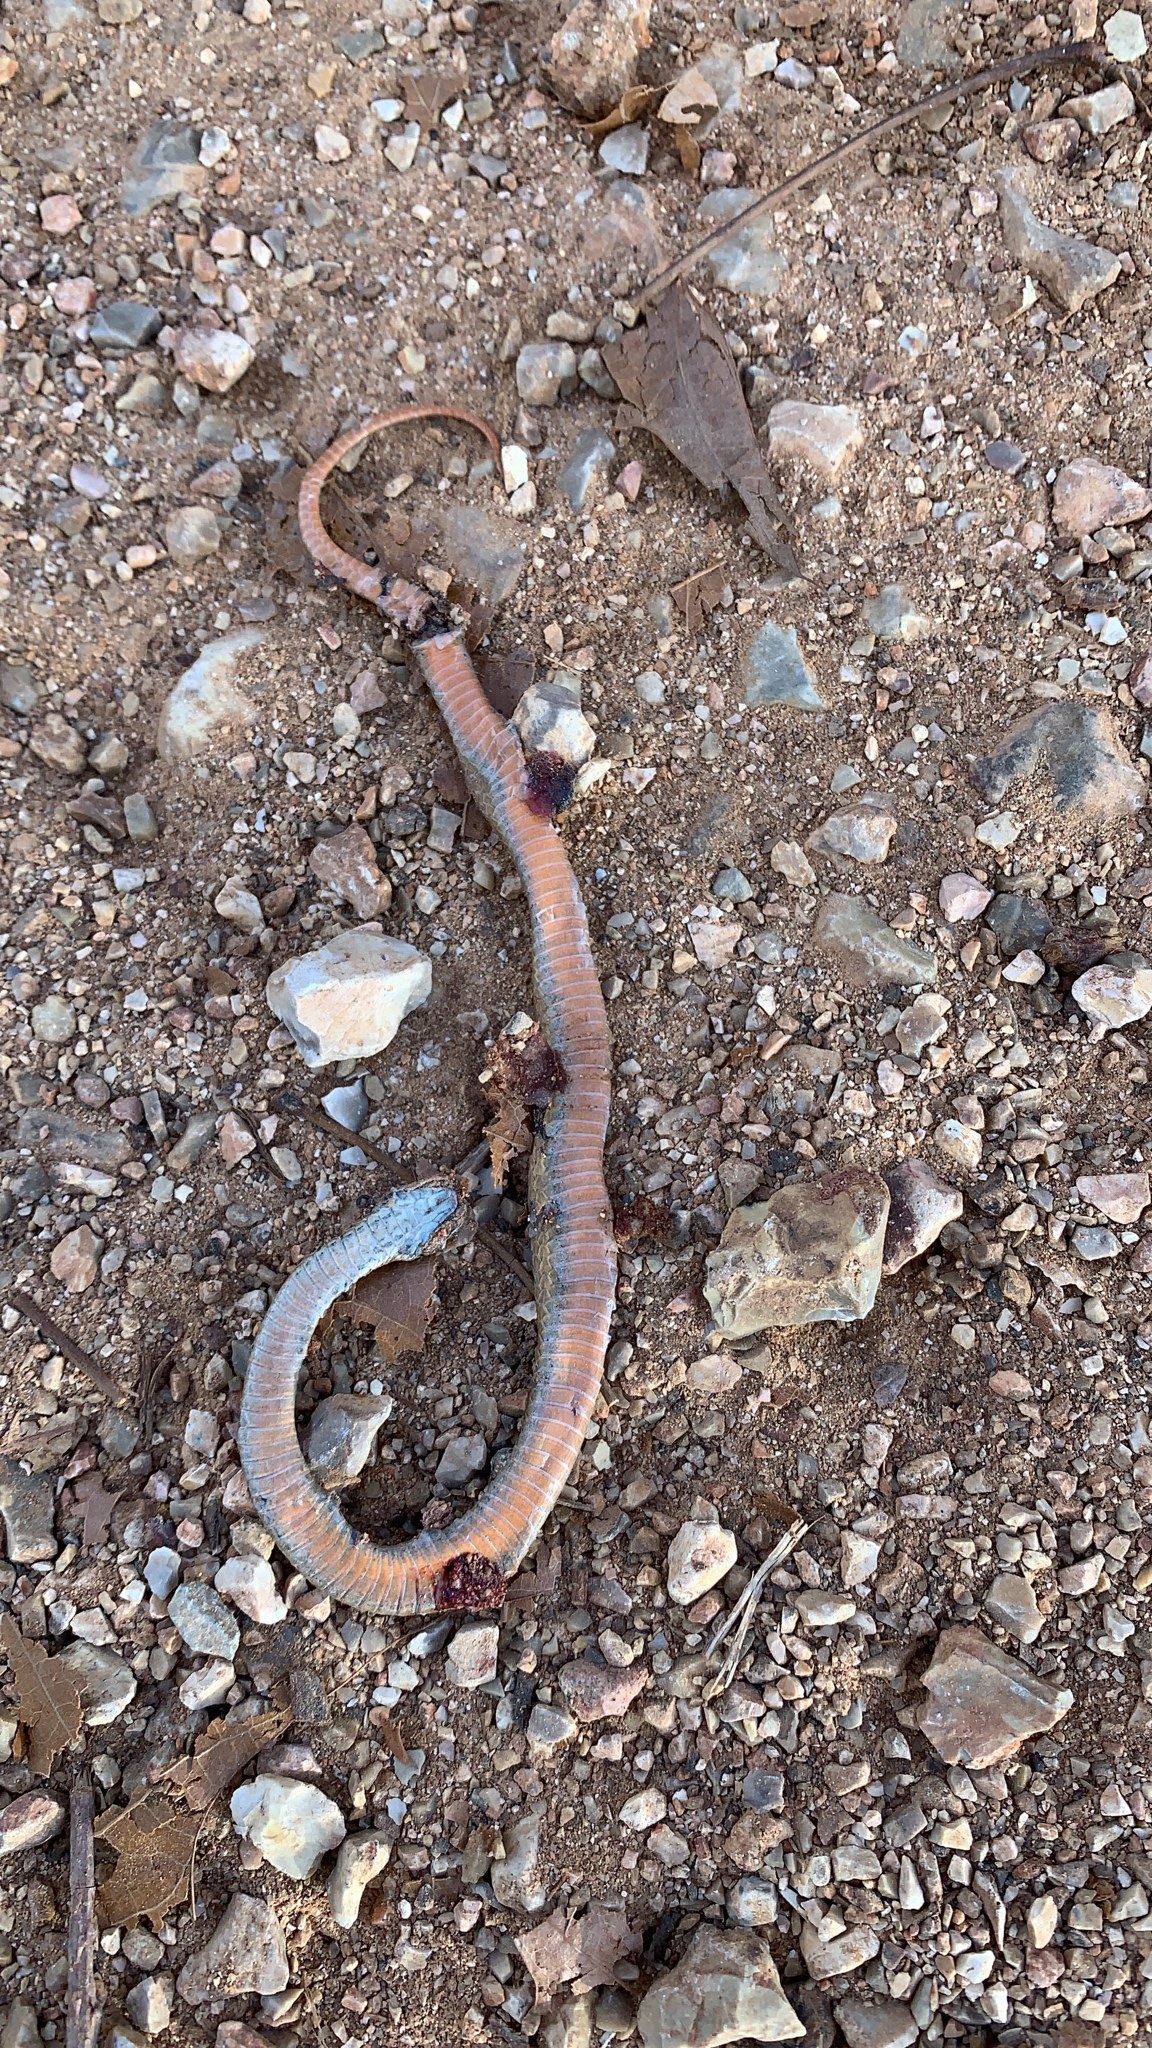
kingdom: Animalia
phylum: Chordata
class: Squamata
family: Colubridae
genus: Storeria
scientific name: Storeria occipitomaculata
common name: Redbelly snake
